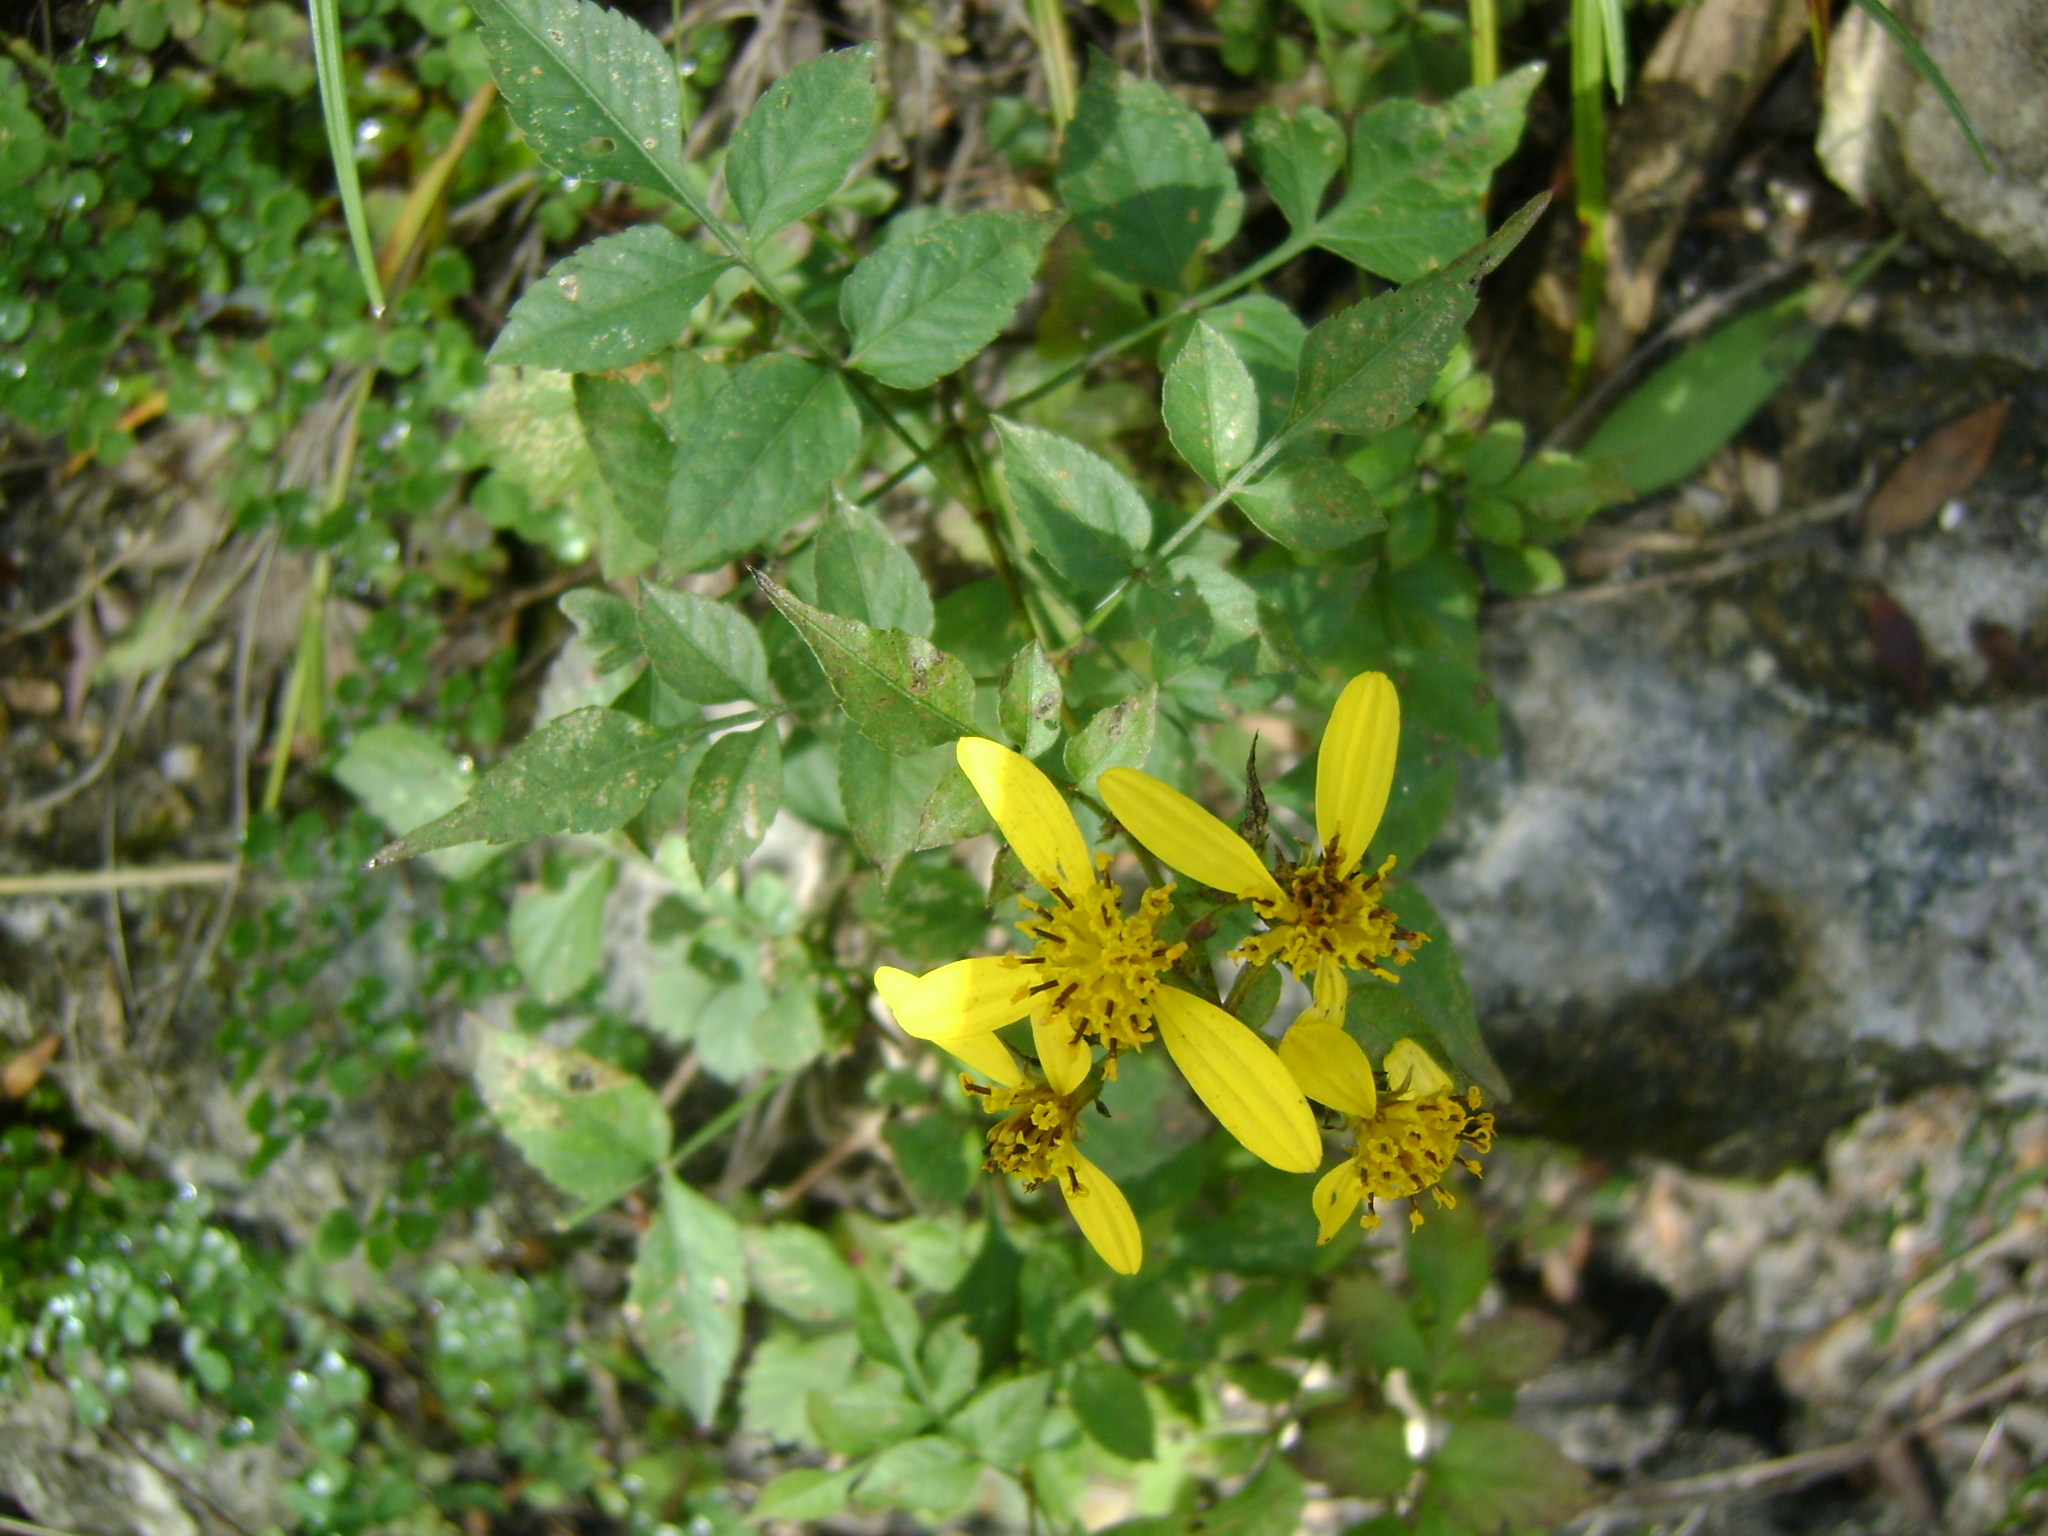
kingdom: Plantae
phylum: Tracheophyta
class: Magnoliopsida
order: Asterales
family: Asteraceae
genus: Bidens
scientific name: Bidens reptans
